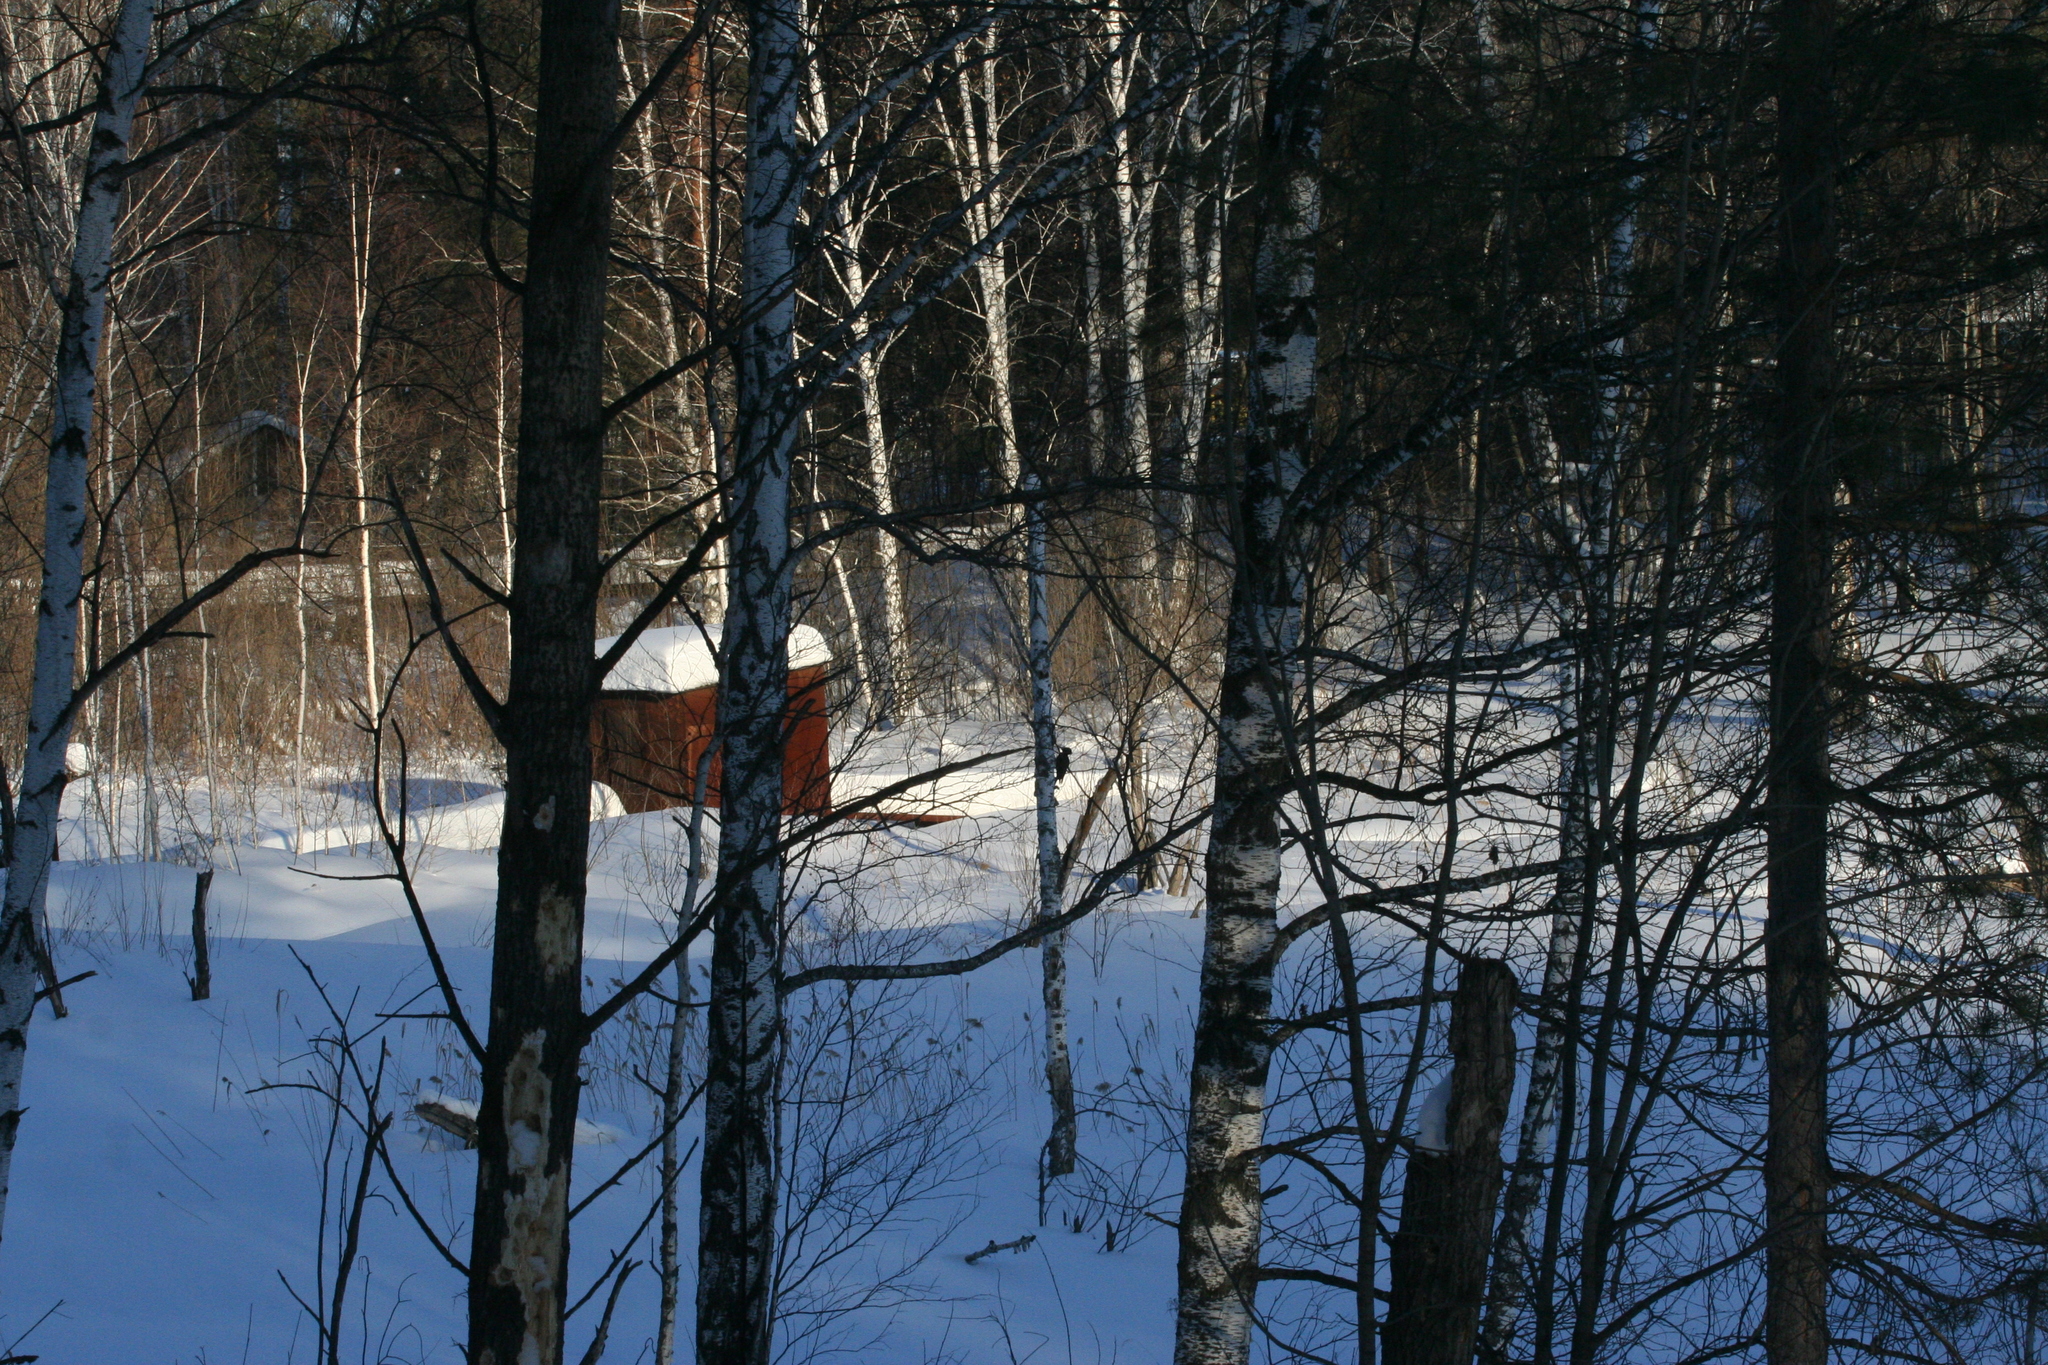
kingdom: Animalia
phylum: Chordata
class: Aves
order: Piciformes
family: Picidae
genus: Dryocopus
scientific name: Dryocopus martius
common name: Black woodpecker
